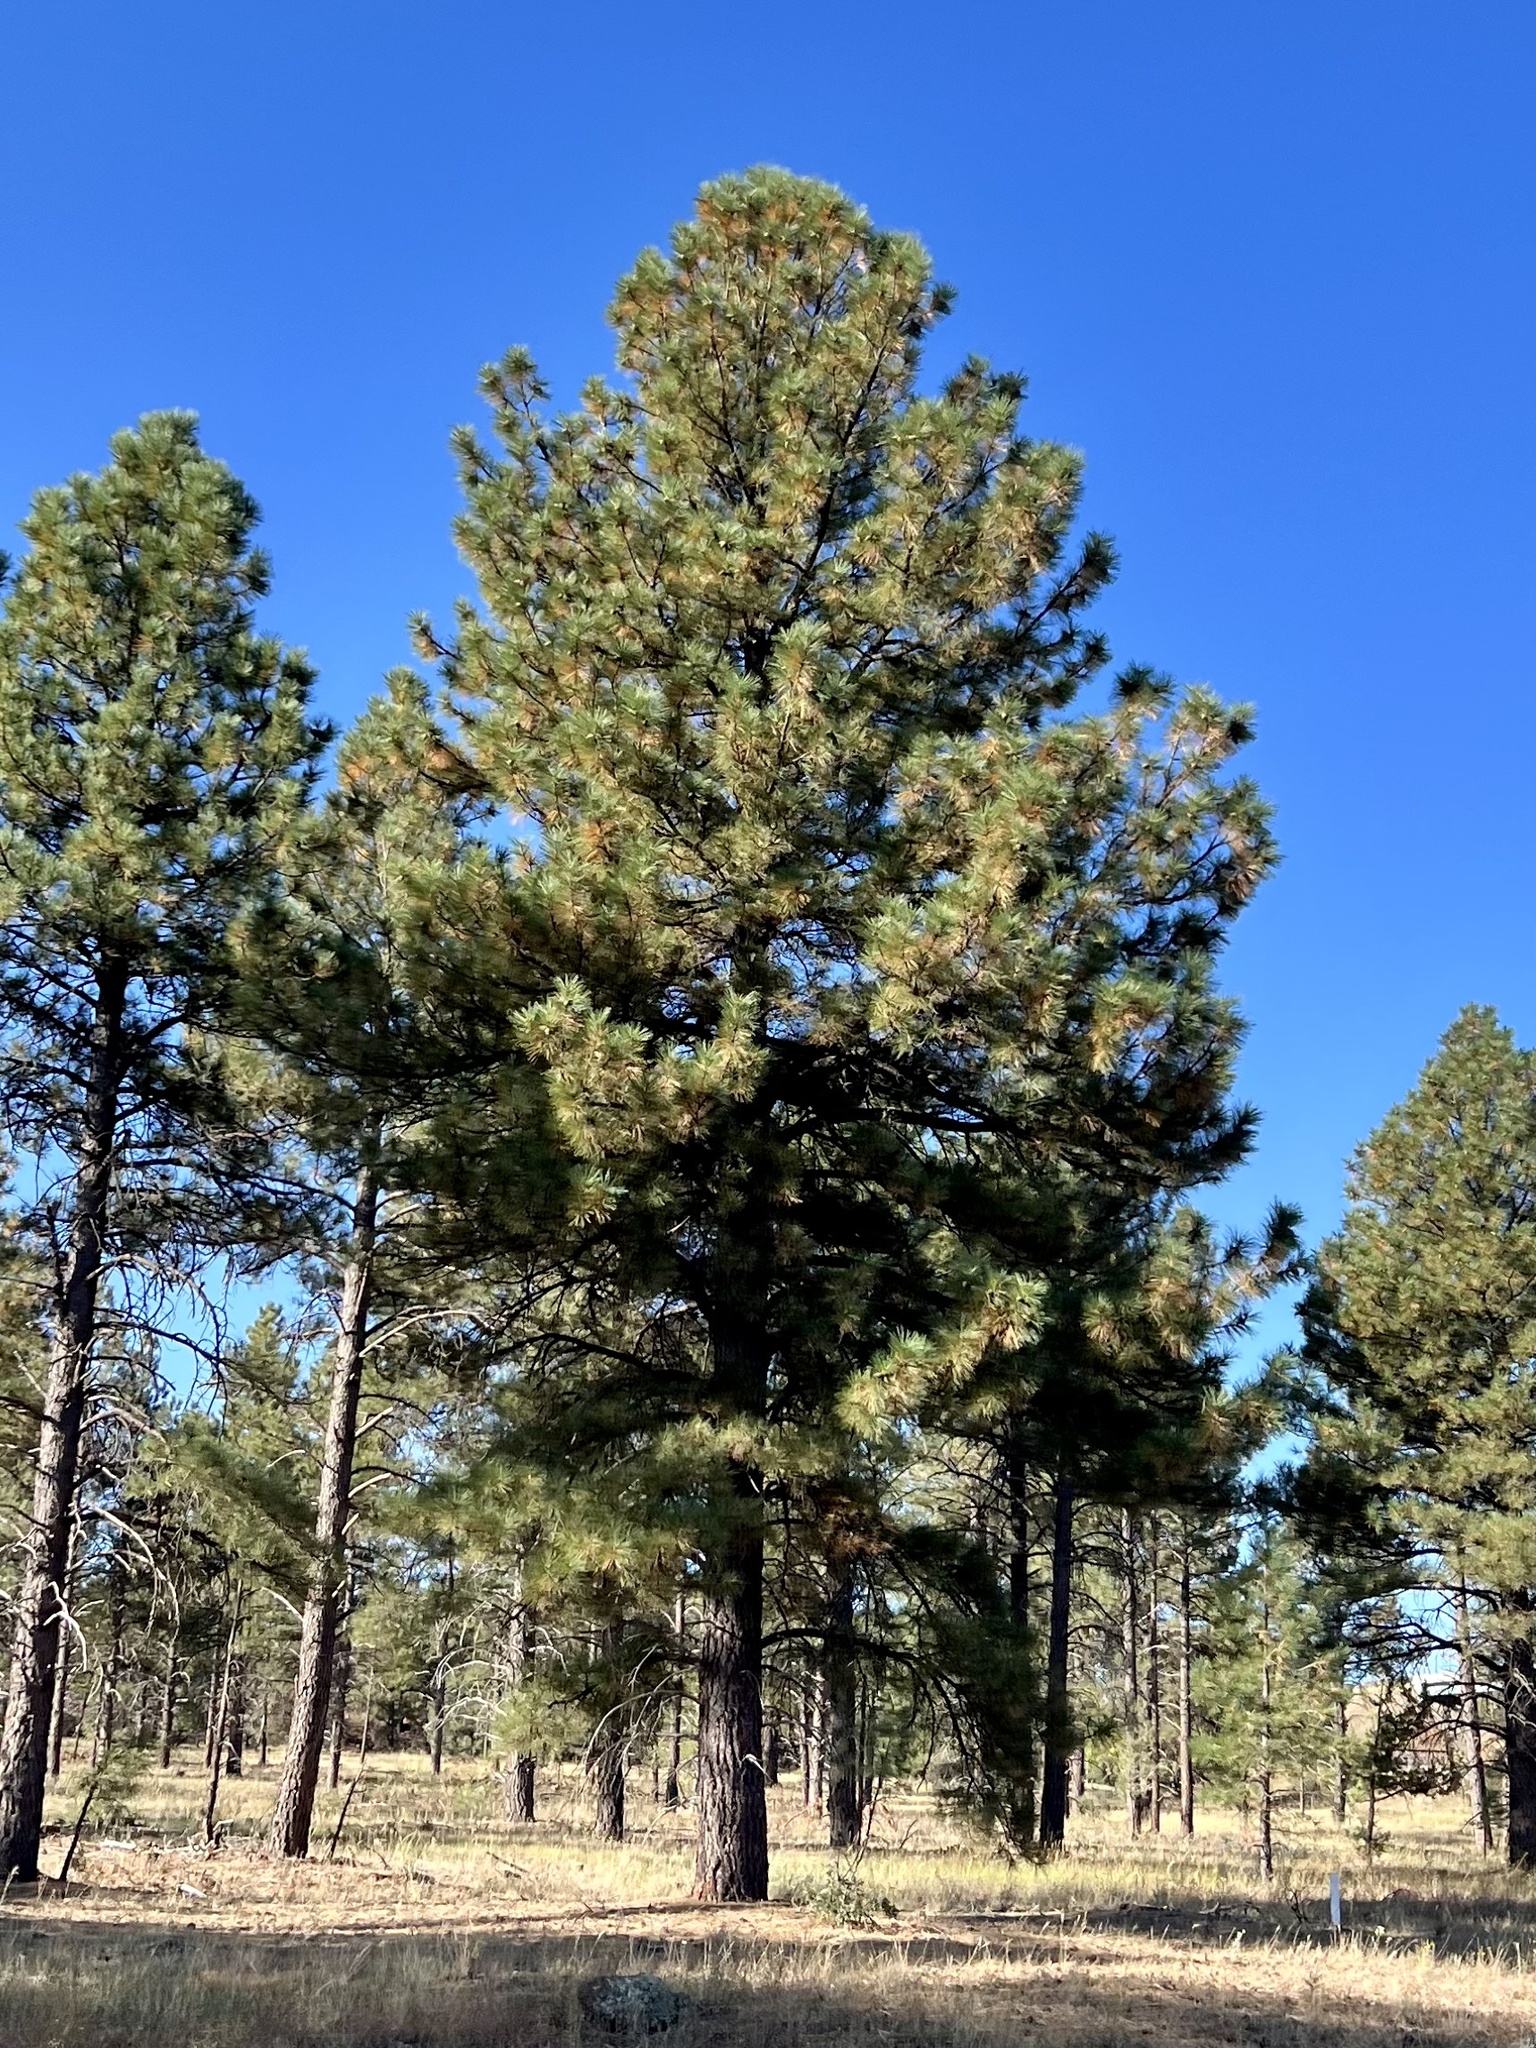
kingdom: Plantae
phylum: Tracheophyta
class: Pinopsida
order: Pinales
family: Pinaceae
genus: Pinus
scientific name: Pinus ponderosa
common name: Western yellow-pine
